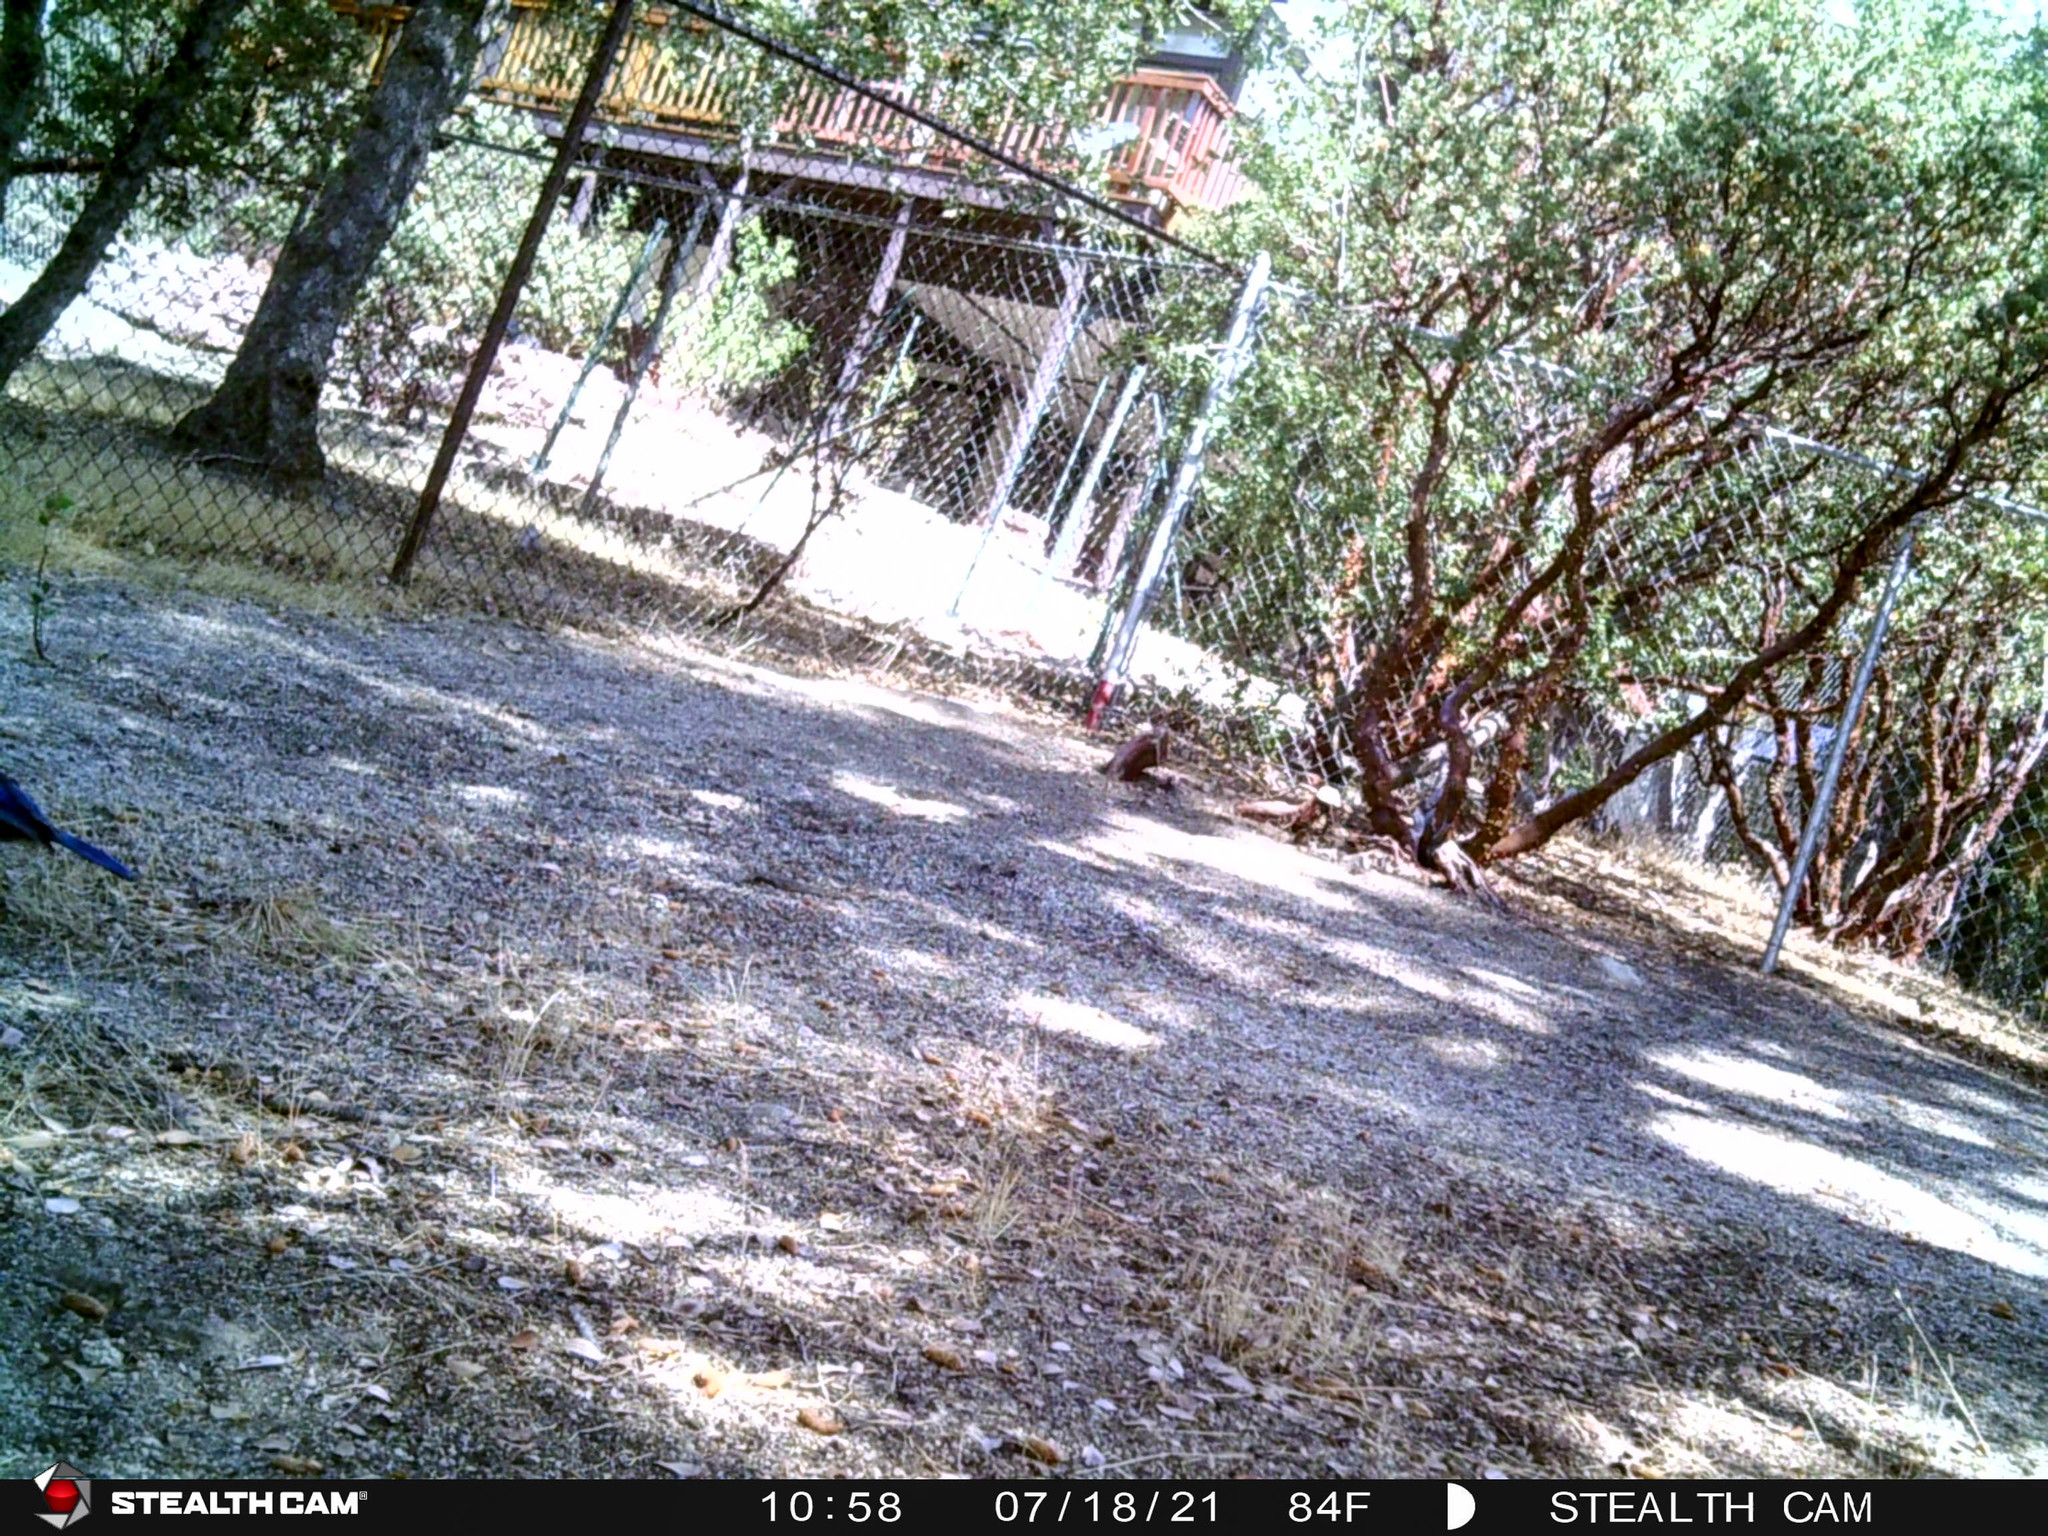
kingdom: Animalia
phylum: Chordata
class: Aves
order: Passeriformes
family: Corvidae
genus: Cyanocitta
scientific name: Cyanocitta stelleri
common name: Steller's jay
